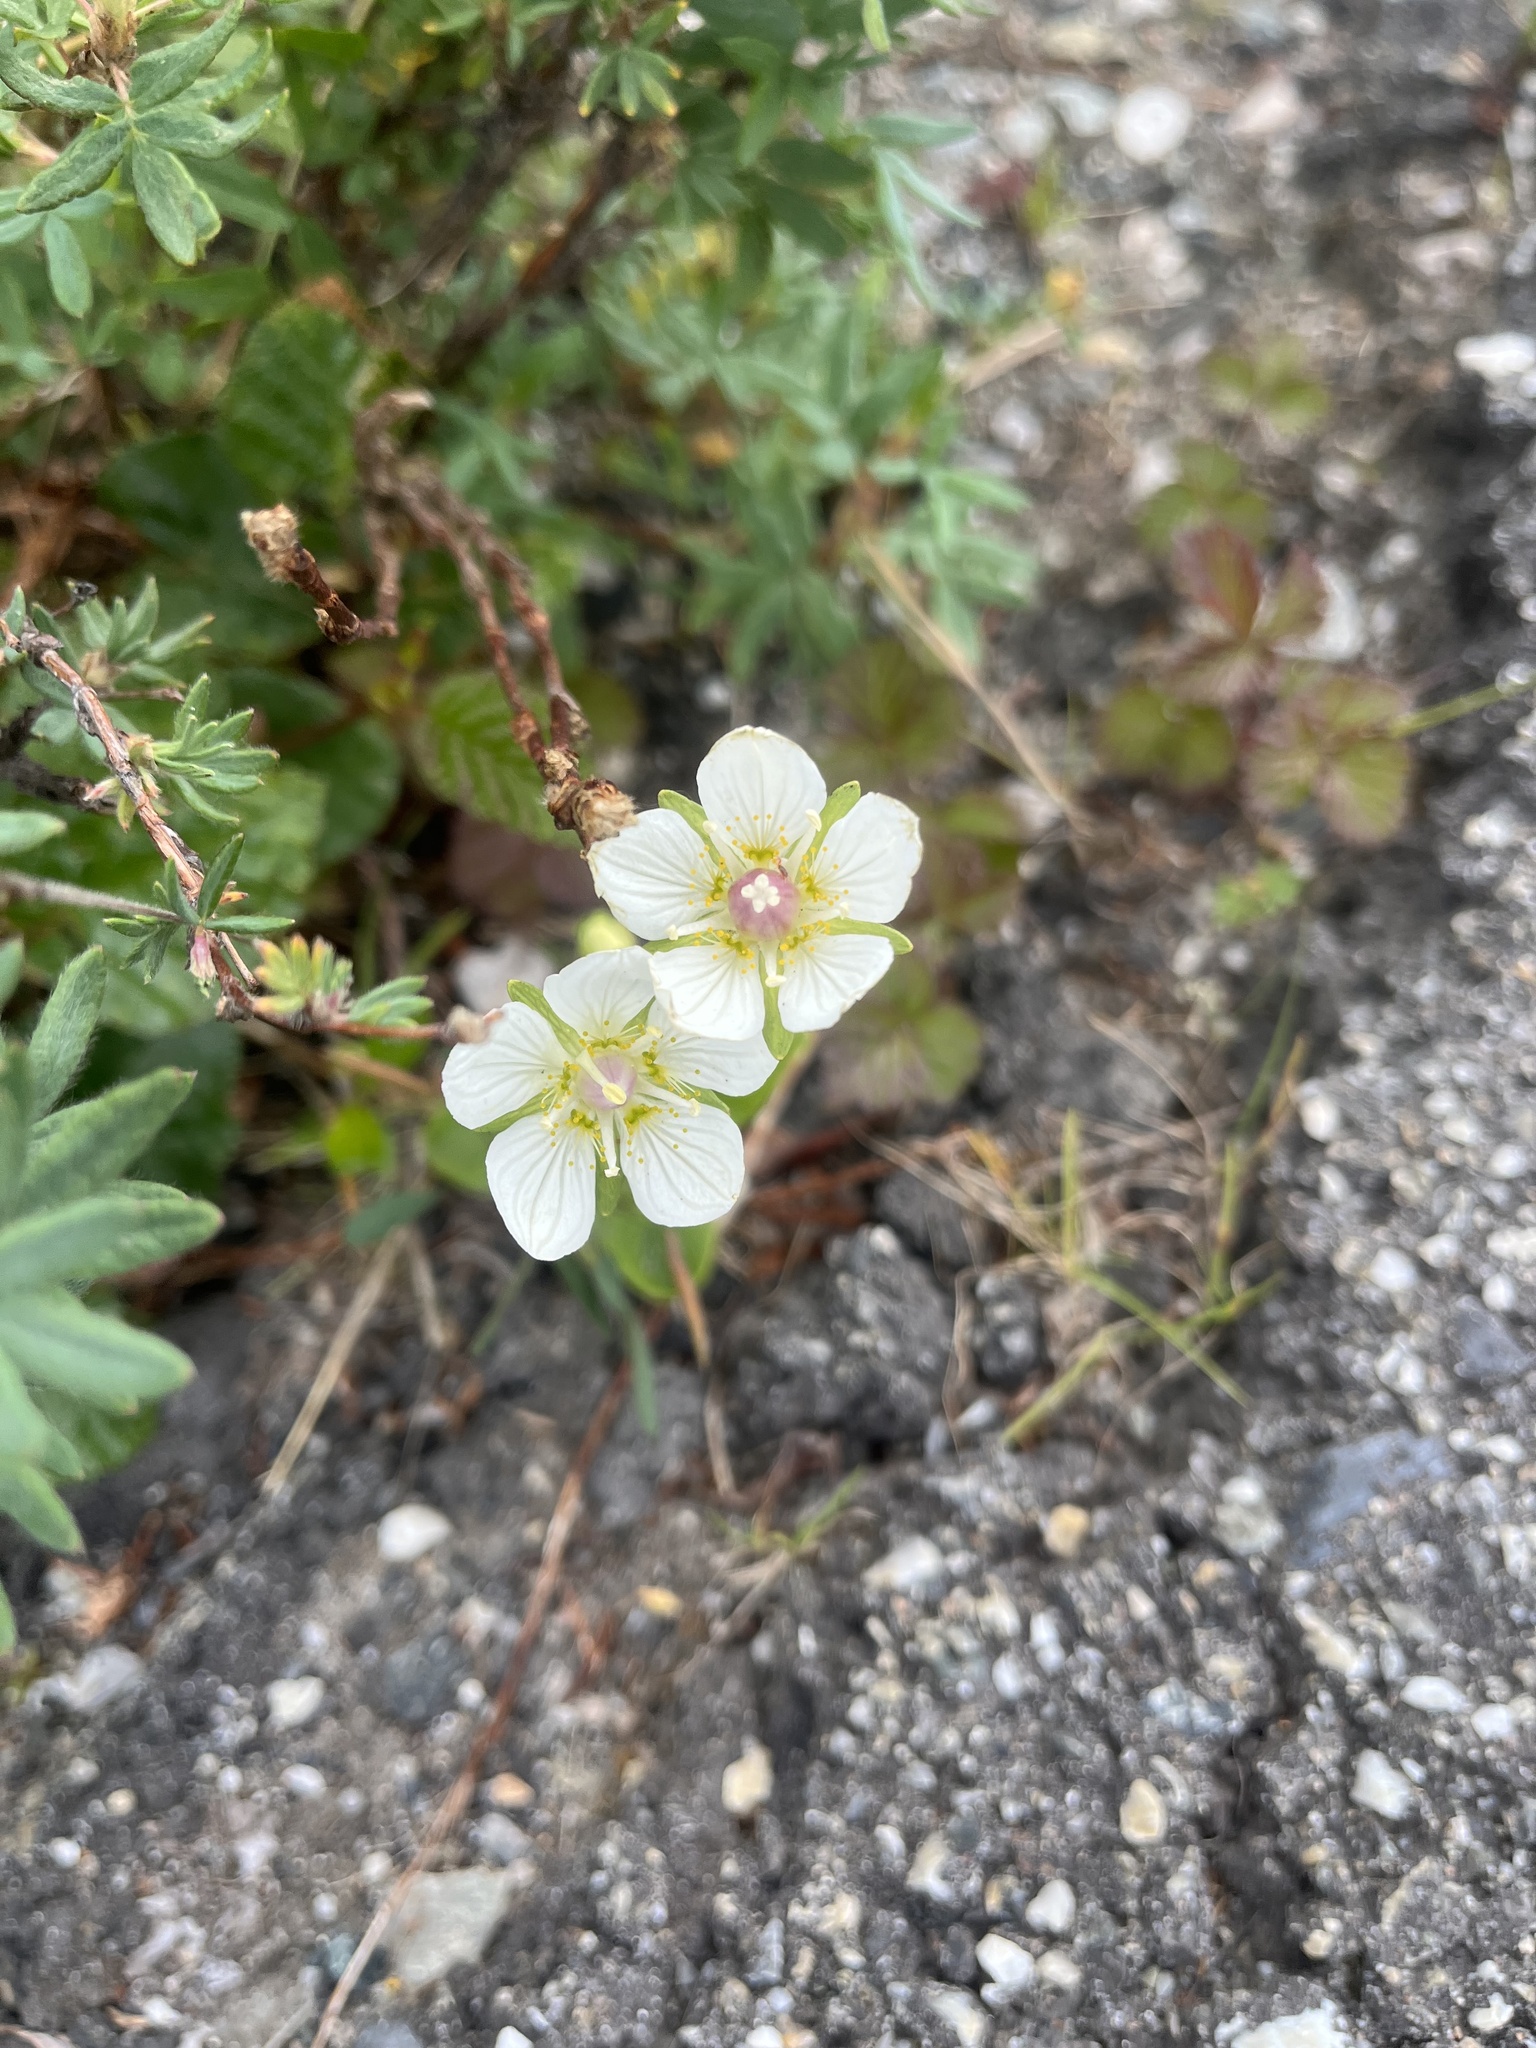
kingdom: Plantae
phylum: Tracheophyta
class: Magnoliopsida
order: Celastrales
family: Parnassiaceae
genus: Parnassia
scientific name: Parnassia palustris
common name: Grass-of-parnassus
